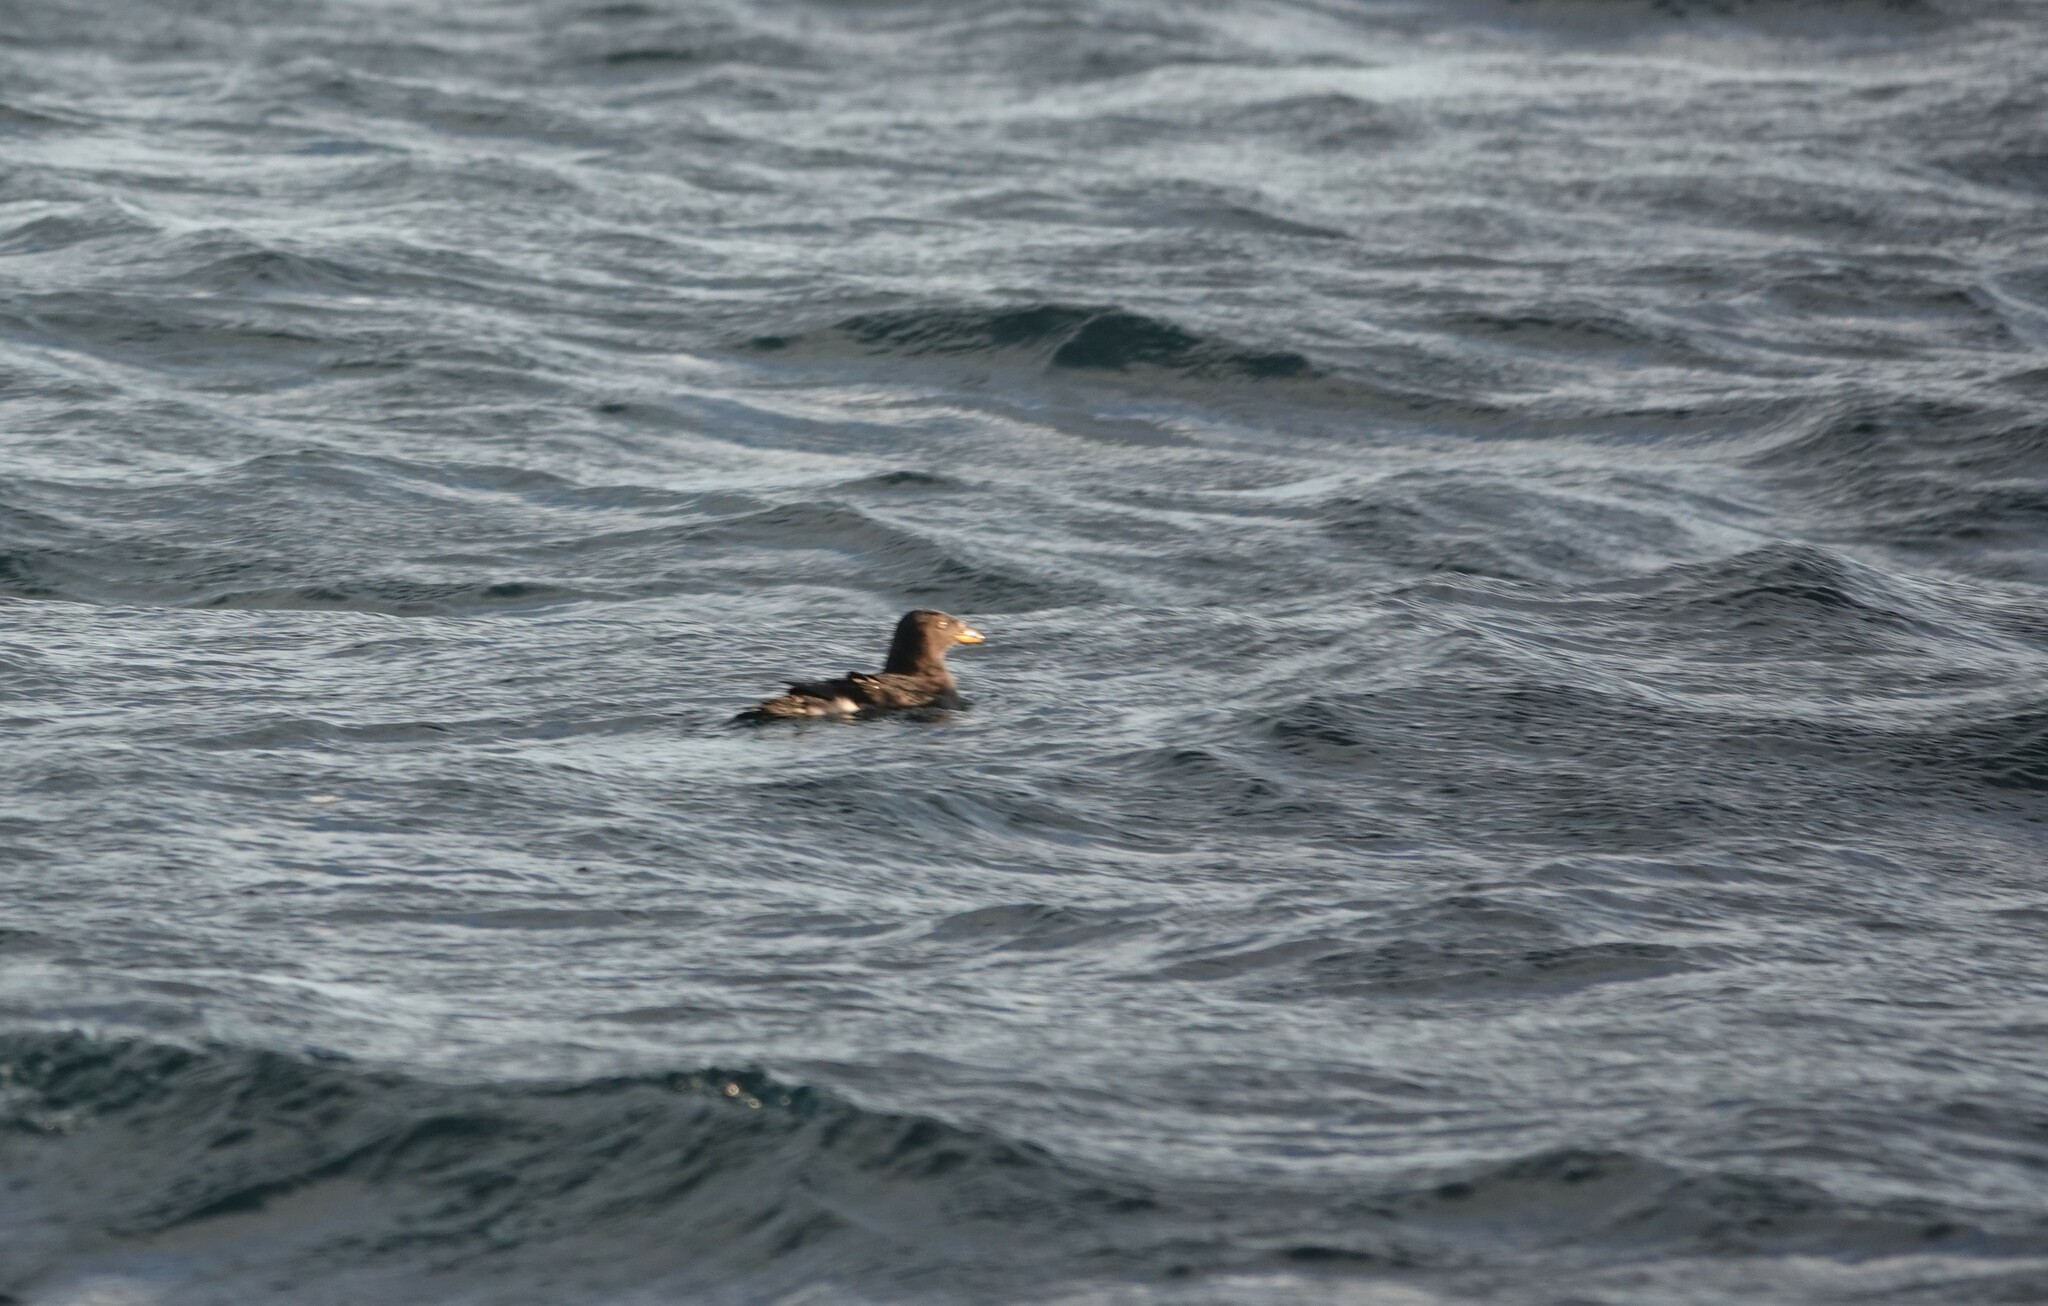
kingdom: Animalia
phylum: Chordata
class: Aves
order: Charadriiformes
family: Alcidae
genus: Cerorhinca
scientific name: Cerorhinca monocerata
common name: Rhinoceros auklet
